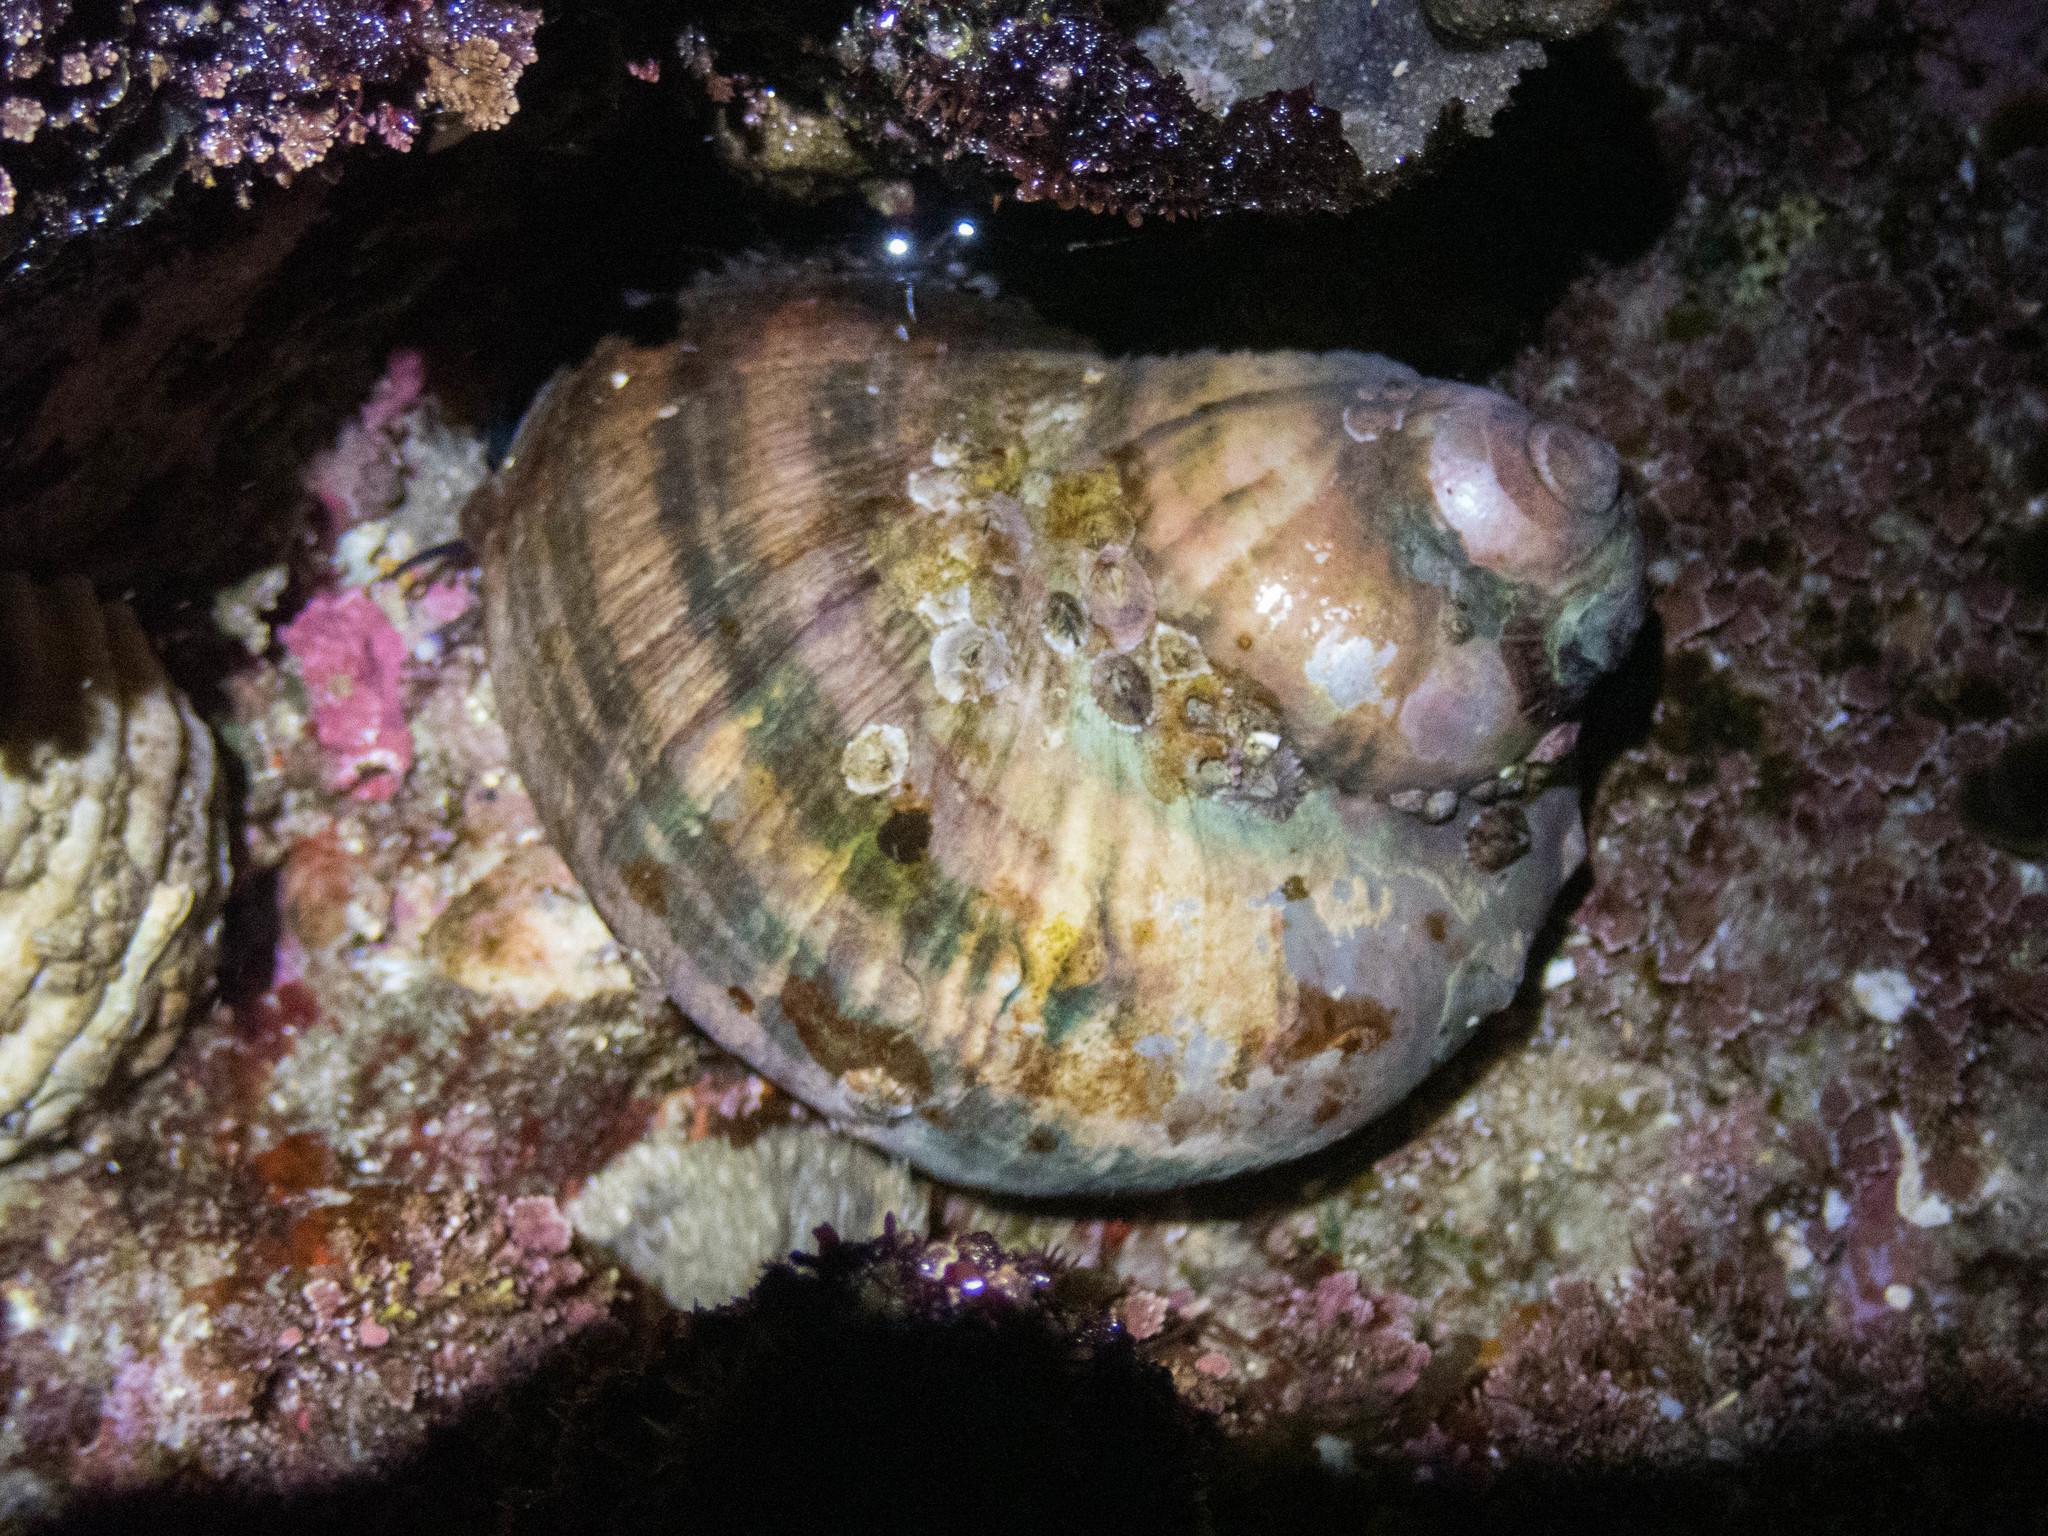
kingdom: Animalia
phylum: Mollusca
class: Gastropoda
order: Trochida
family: Turbinidae
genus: Turbo
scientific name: Turbo militaris
